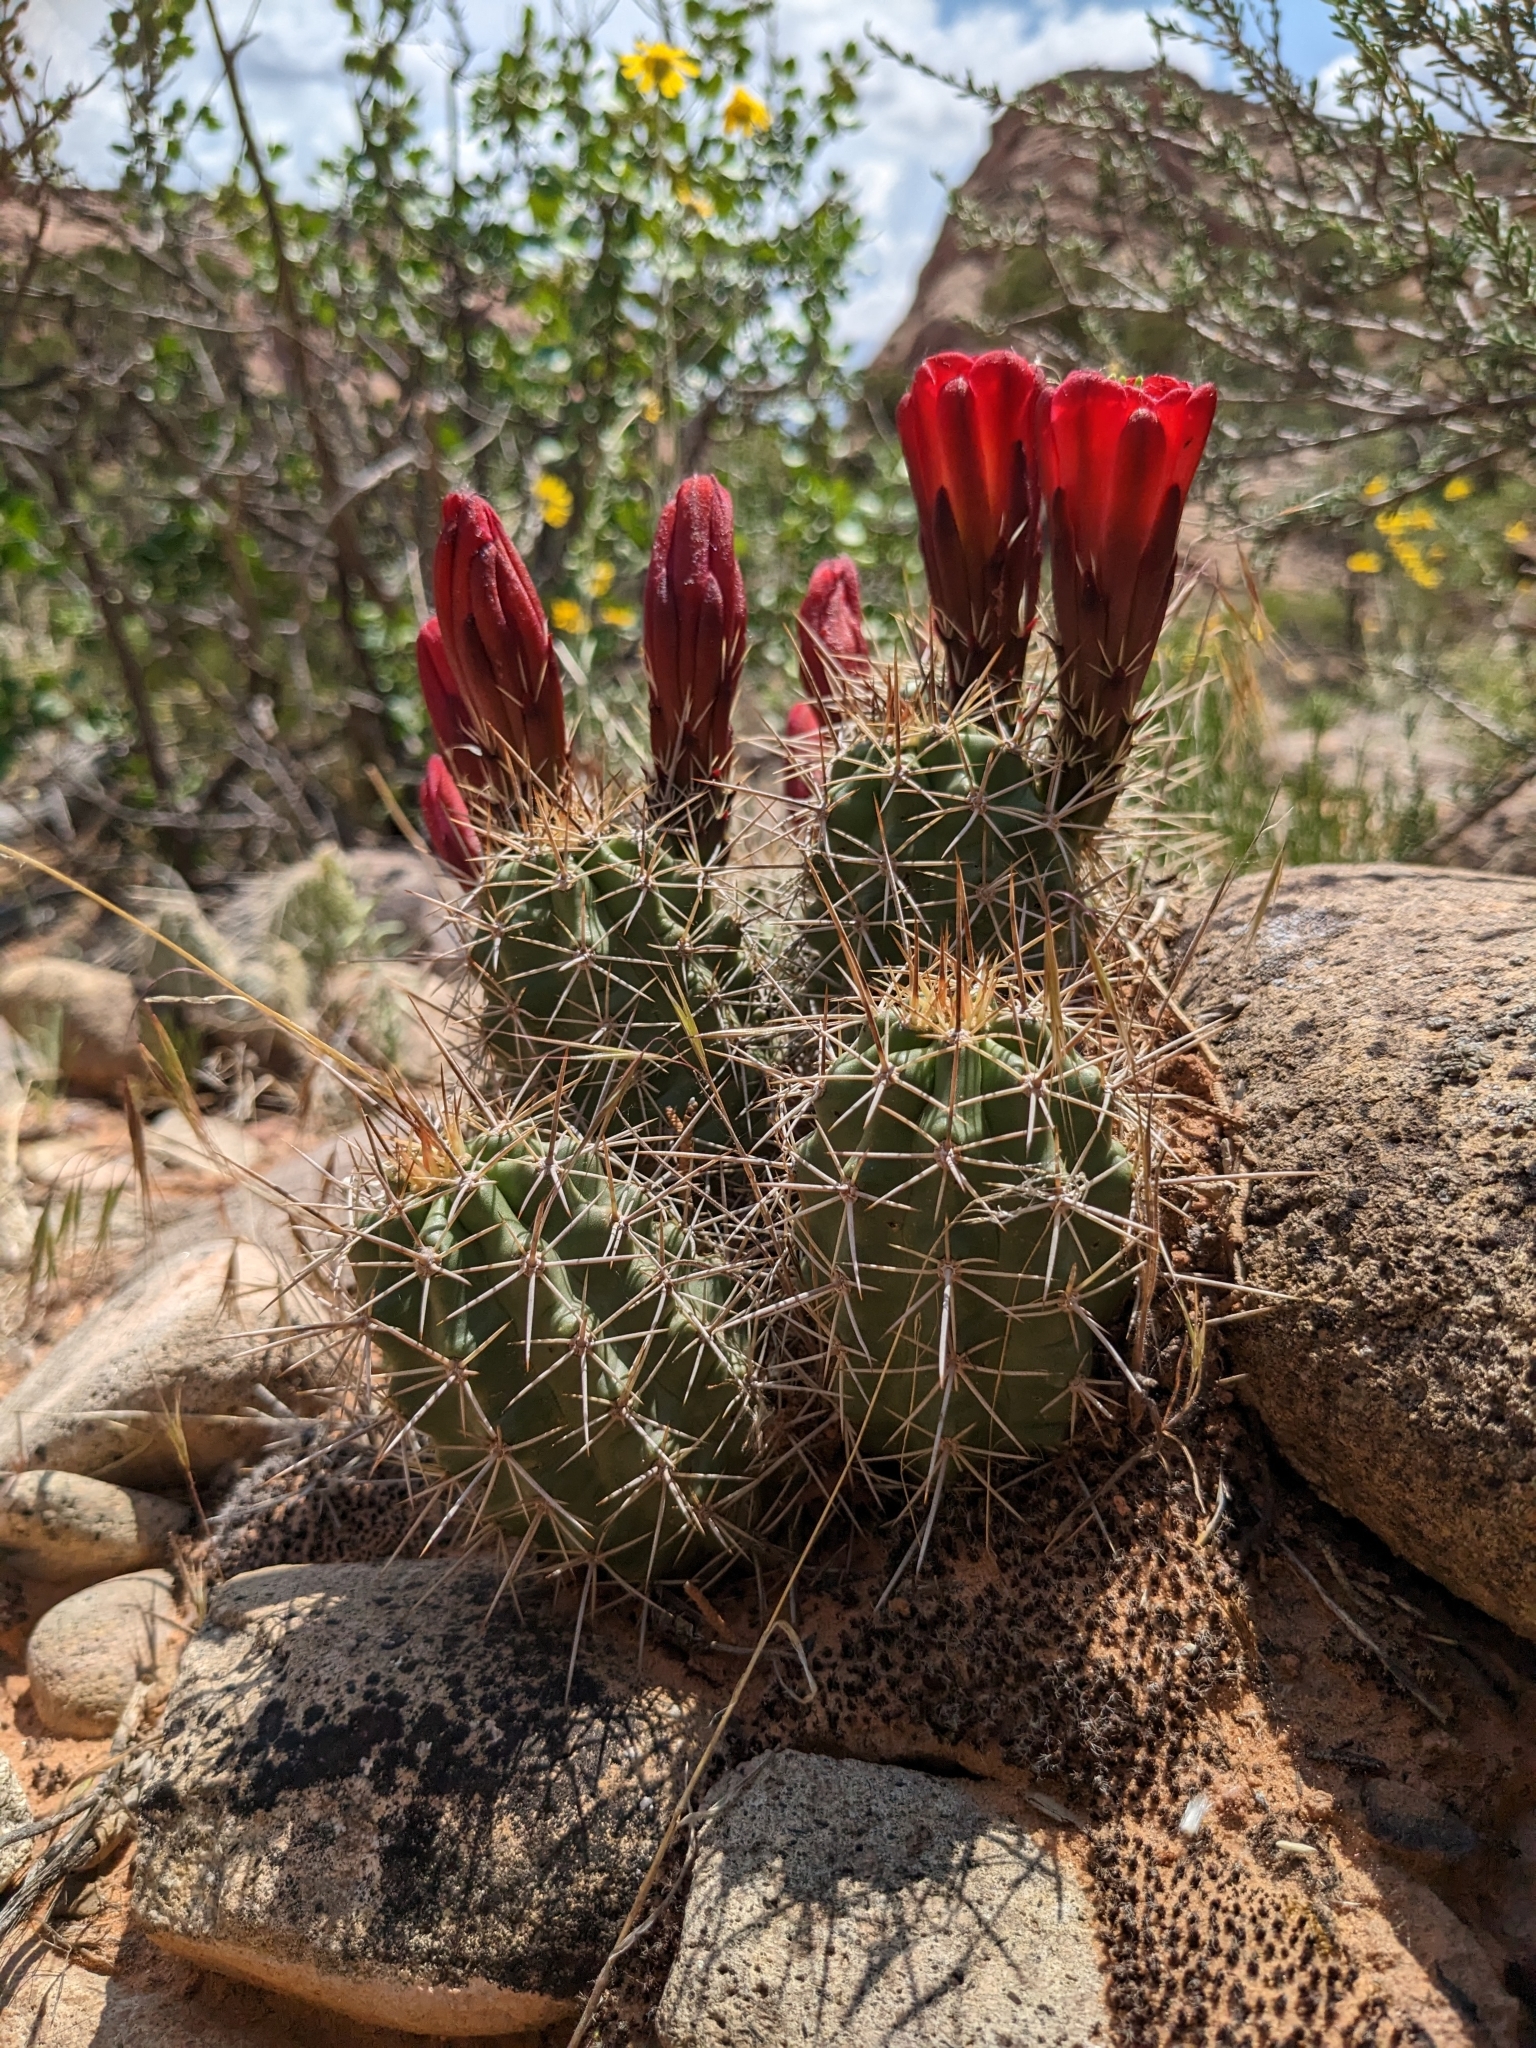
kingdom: Plantae
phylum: Tracheophyta
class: Magnoliopsida
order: Caryophyllales
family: Cactaceae
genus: Echinocereus
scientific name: Echinocereus triglochidiatus
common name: Claretcup hedgehog
